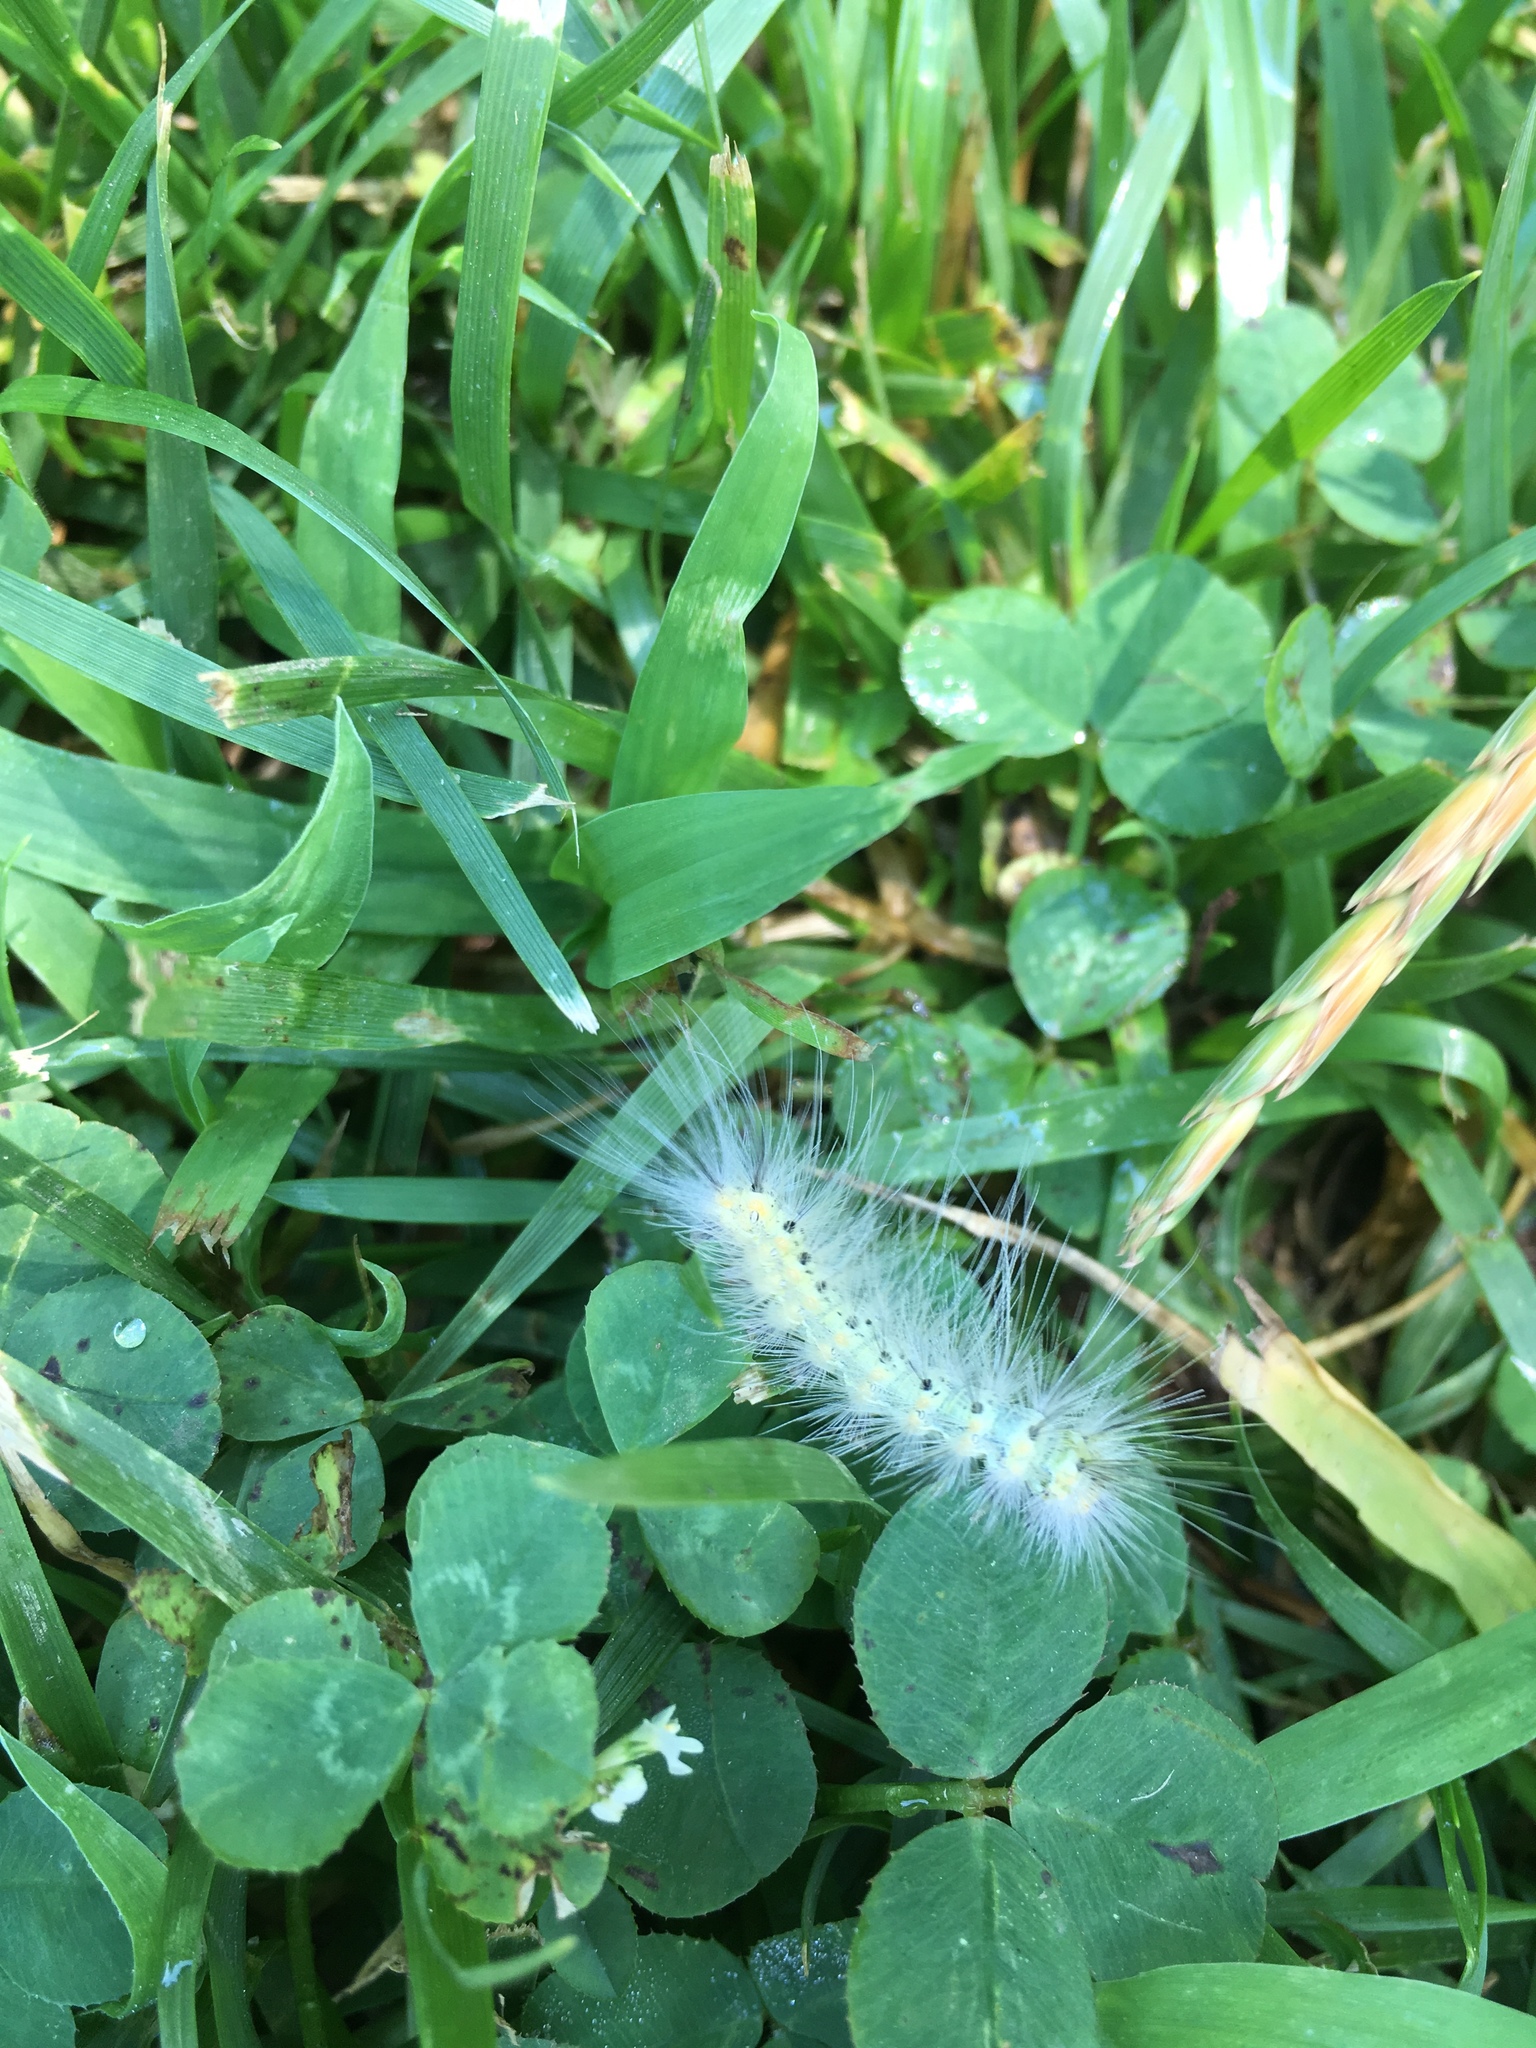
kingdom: Animalia
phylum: Arthropoda
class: Insecta
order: Lepidoptera
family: Erebidae
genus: Hyphantria
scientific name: Hyphantria cunea
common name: American white moth
